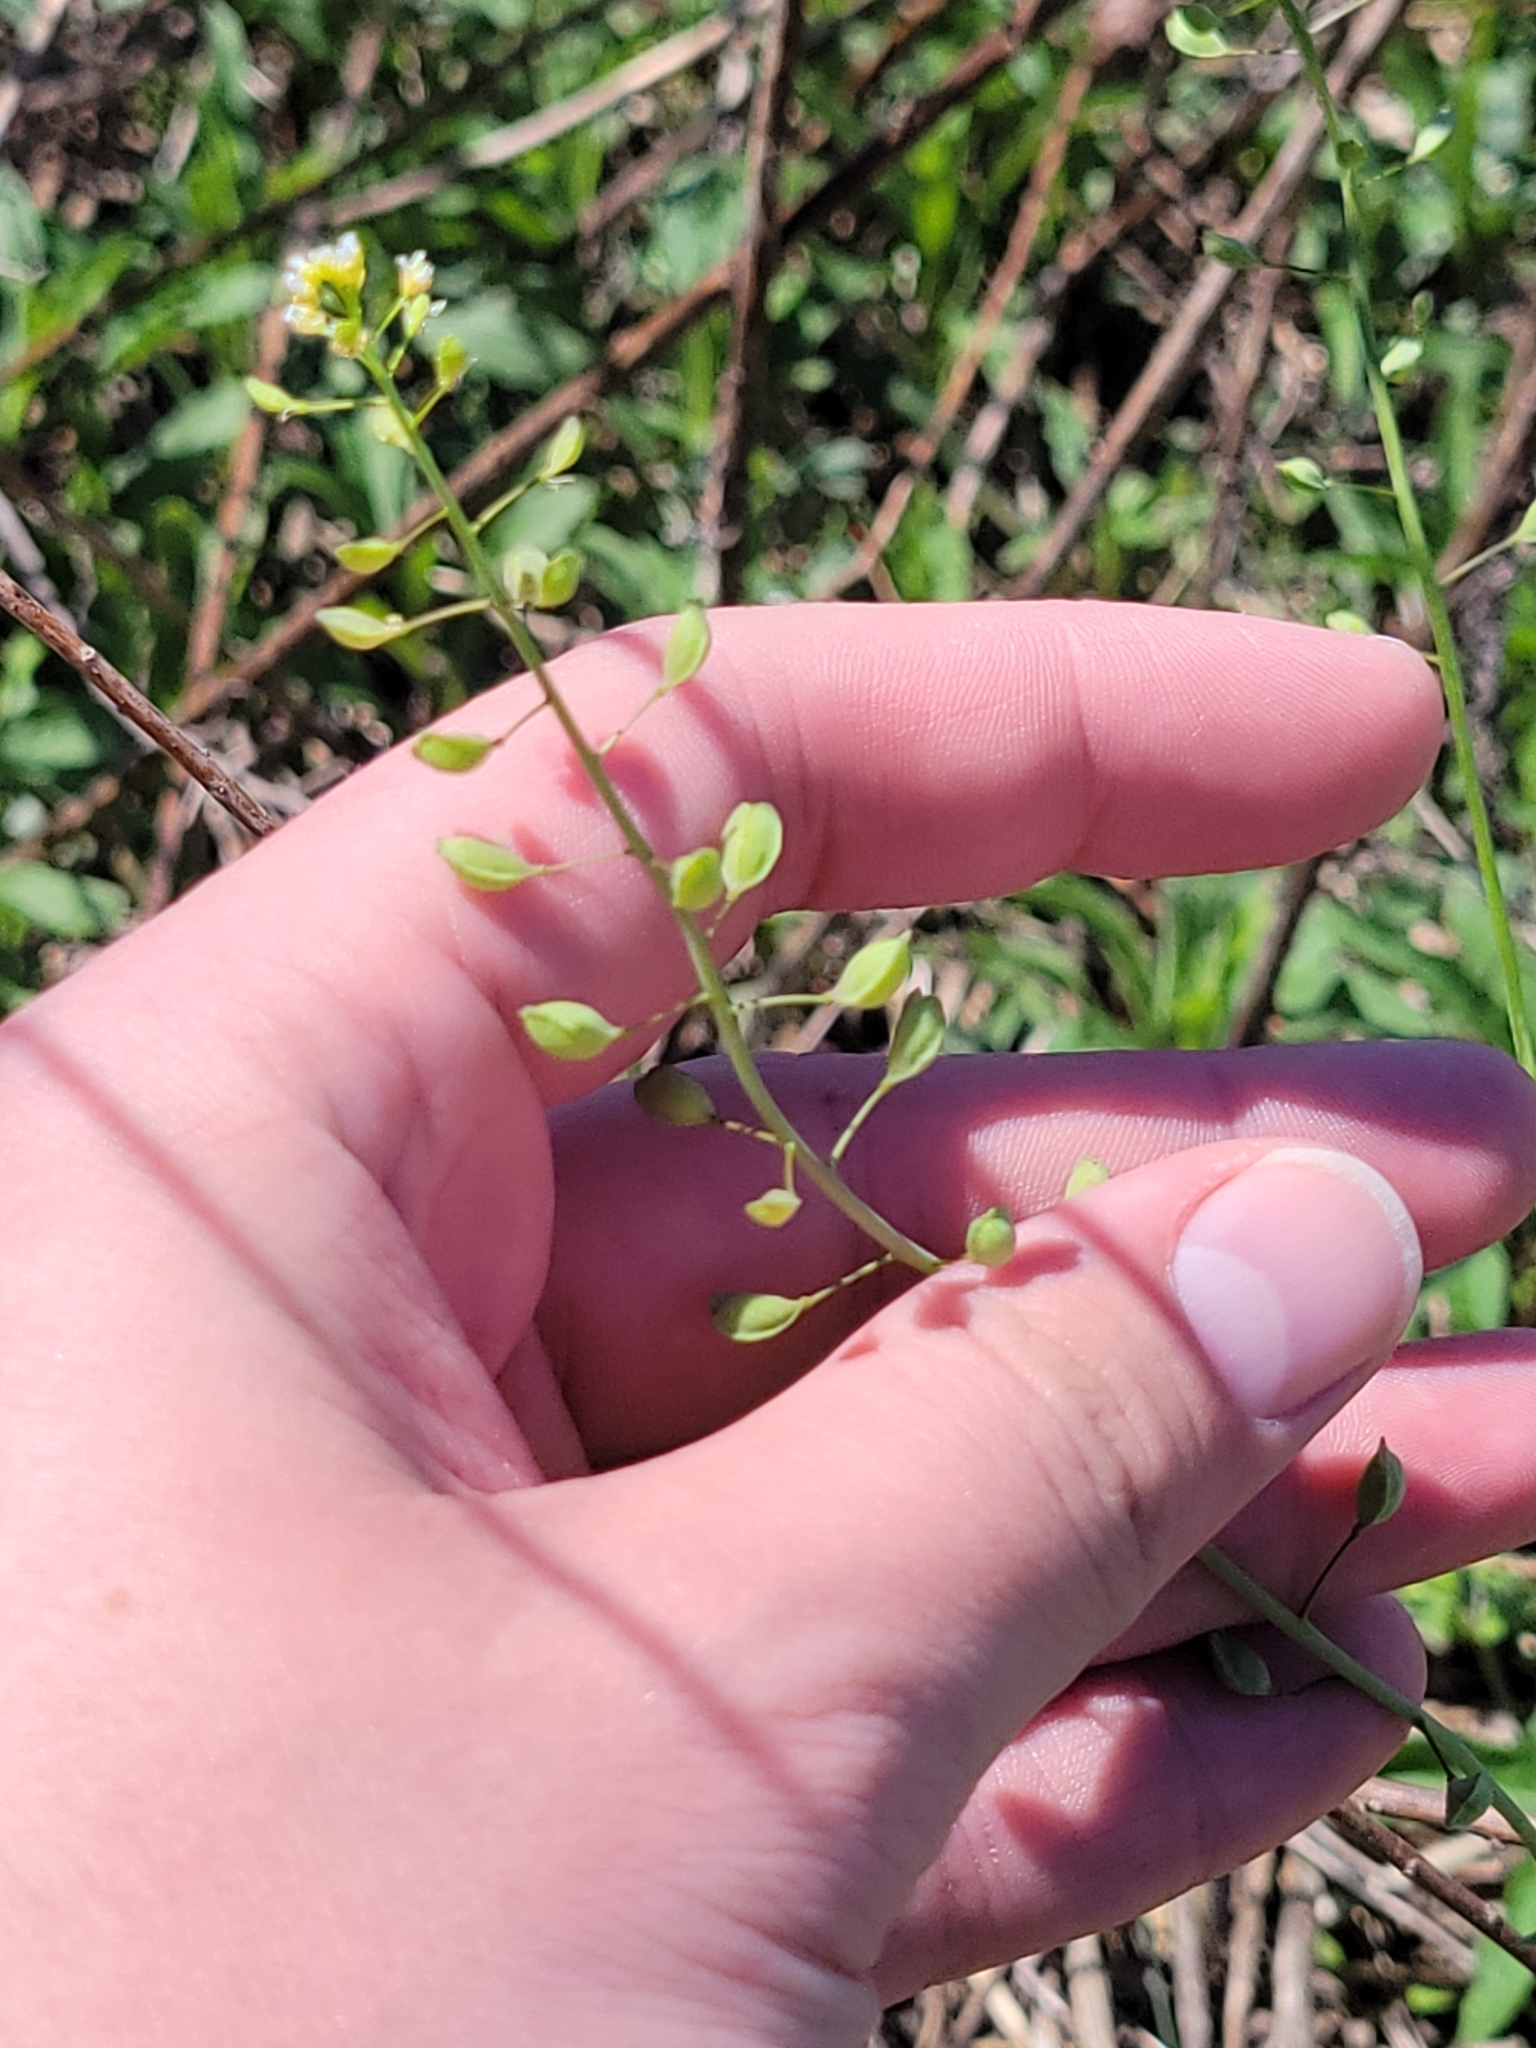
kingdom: Plantae
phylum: Tracheophyta
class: Magnoliopsida
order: Brassicales
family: Brassicaceae
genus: Mummenhoffia
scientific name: Mummenhoffia alliacea
